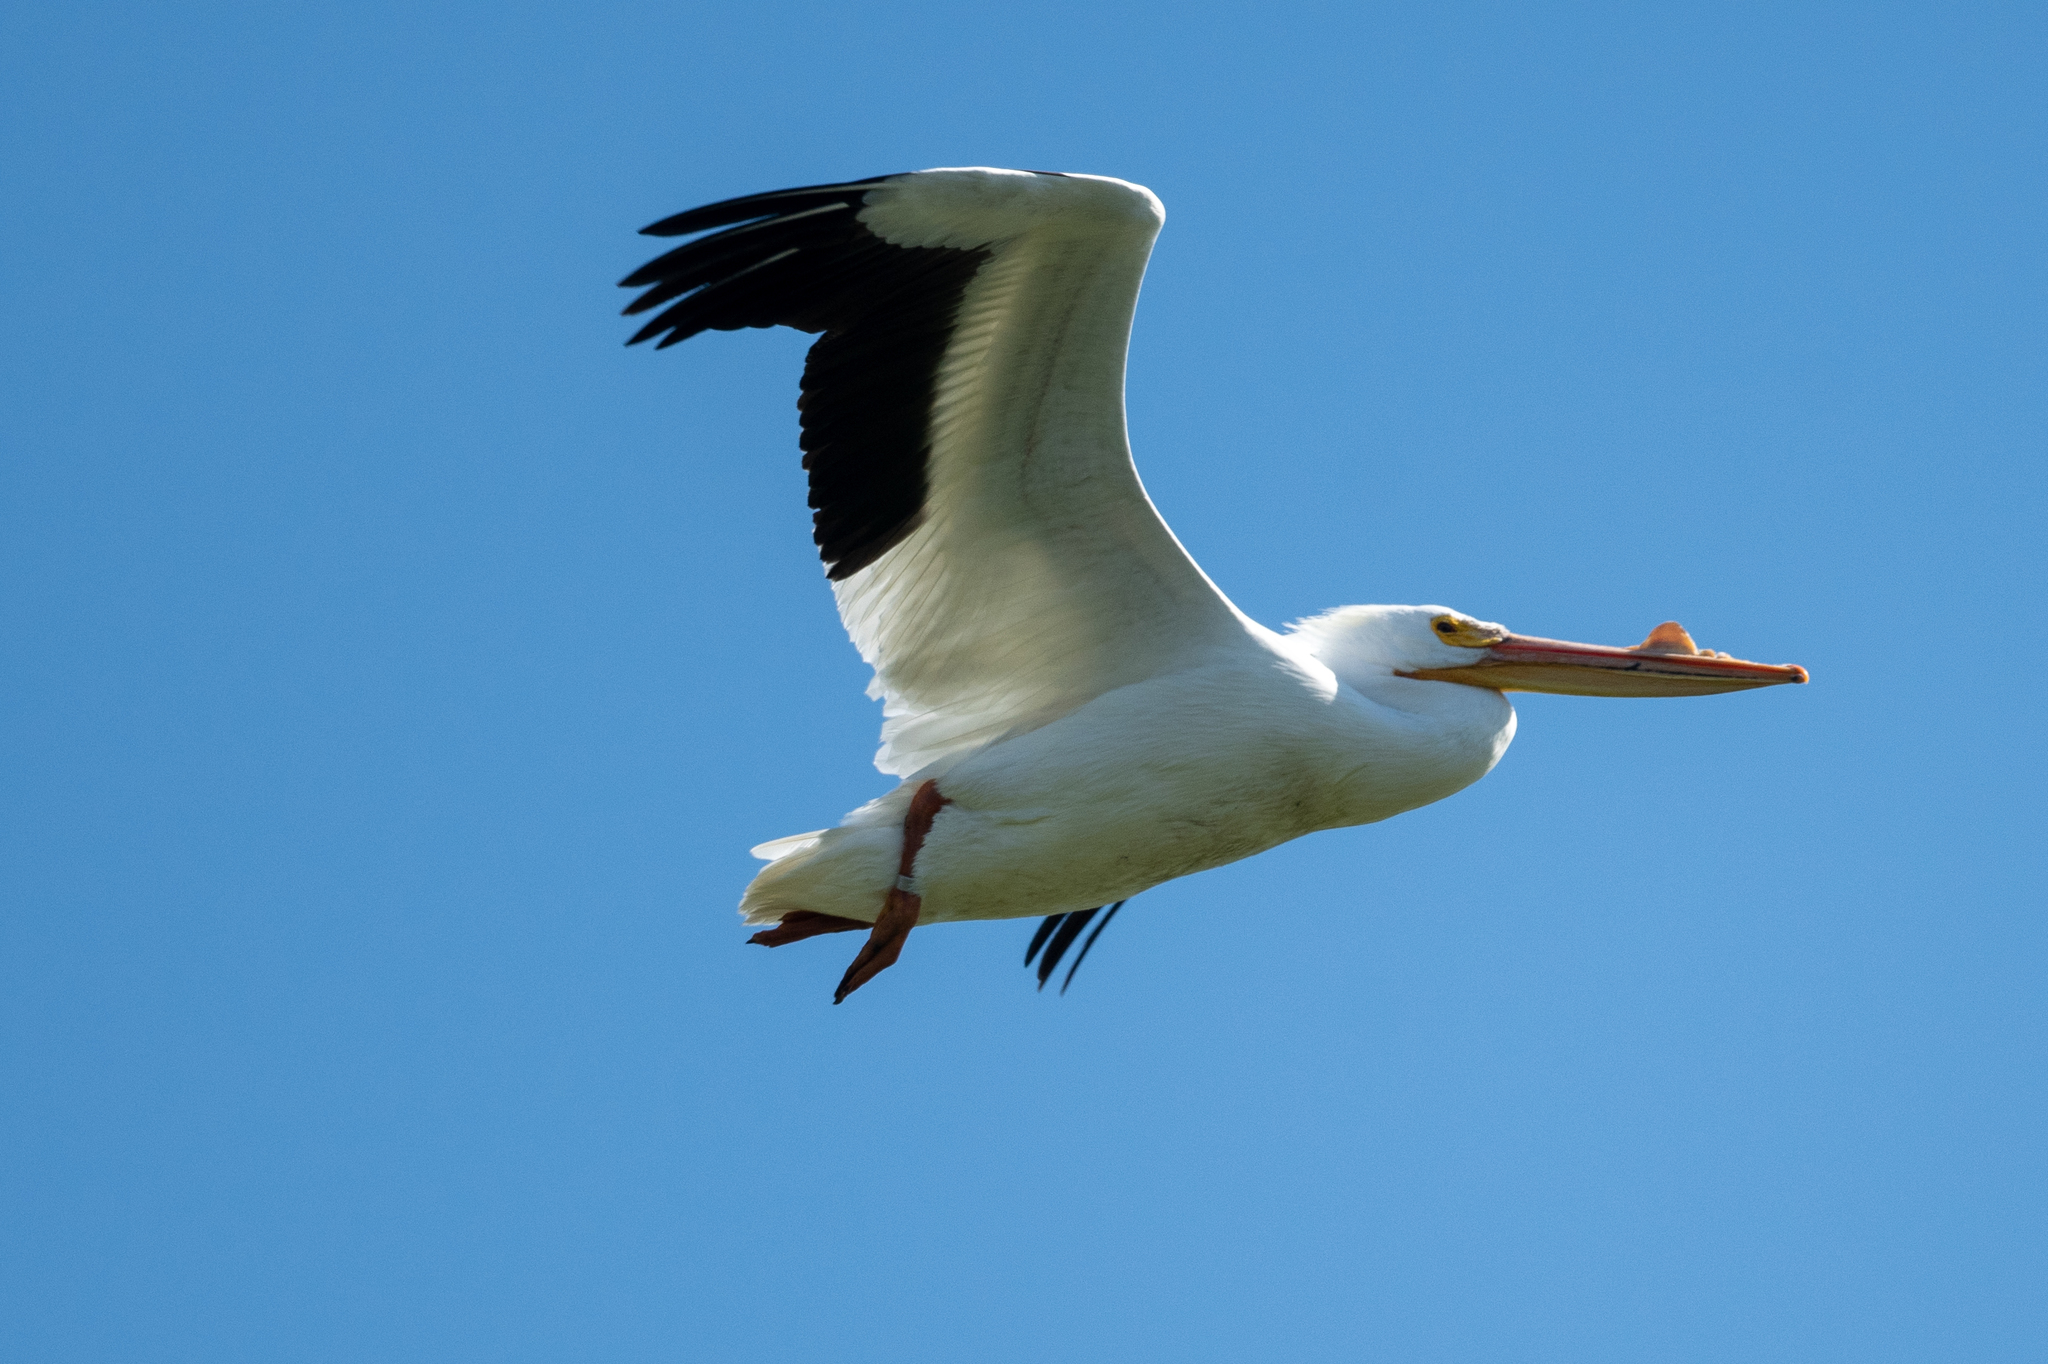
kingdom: Animalia
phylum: Chordata
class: Aves
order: Pelecaniformes
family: Pelecanidae
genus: Pelecanus
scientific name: Pelecanus erythrorhynchos
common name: American white pelican
